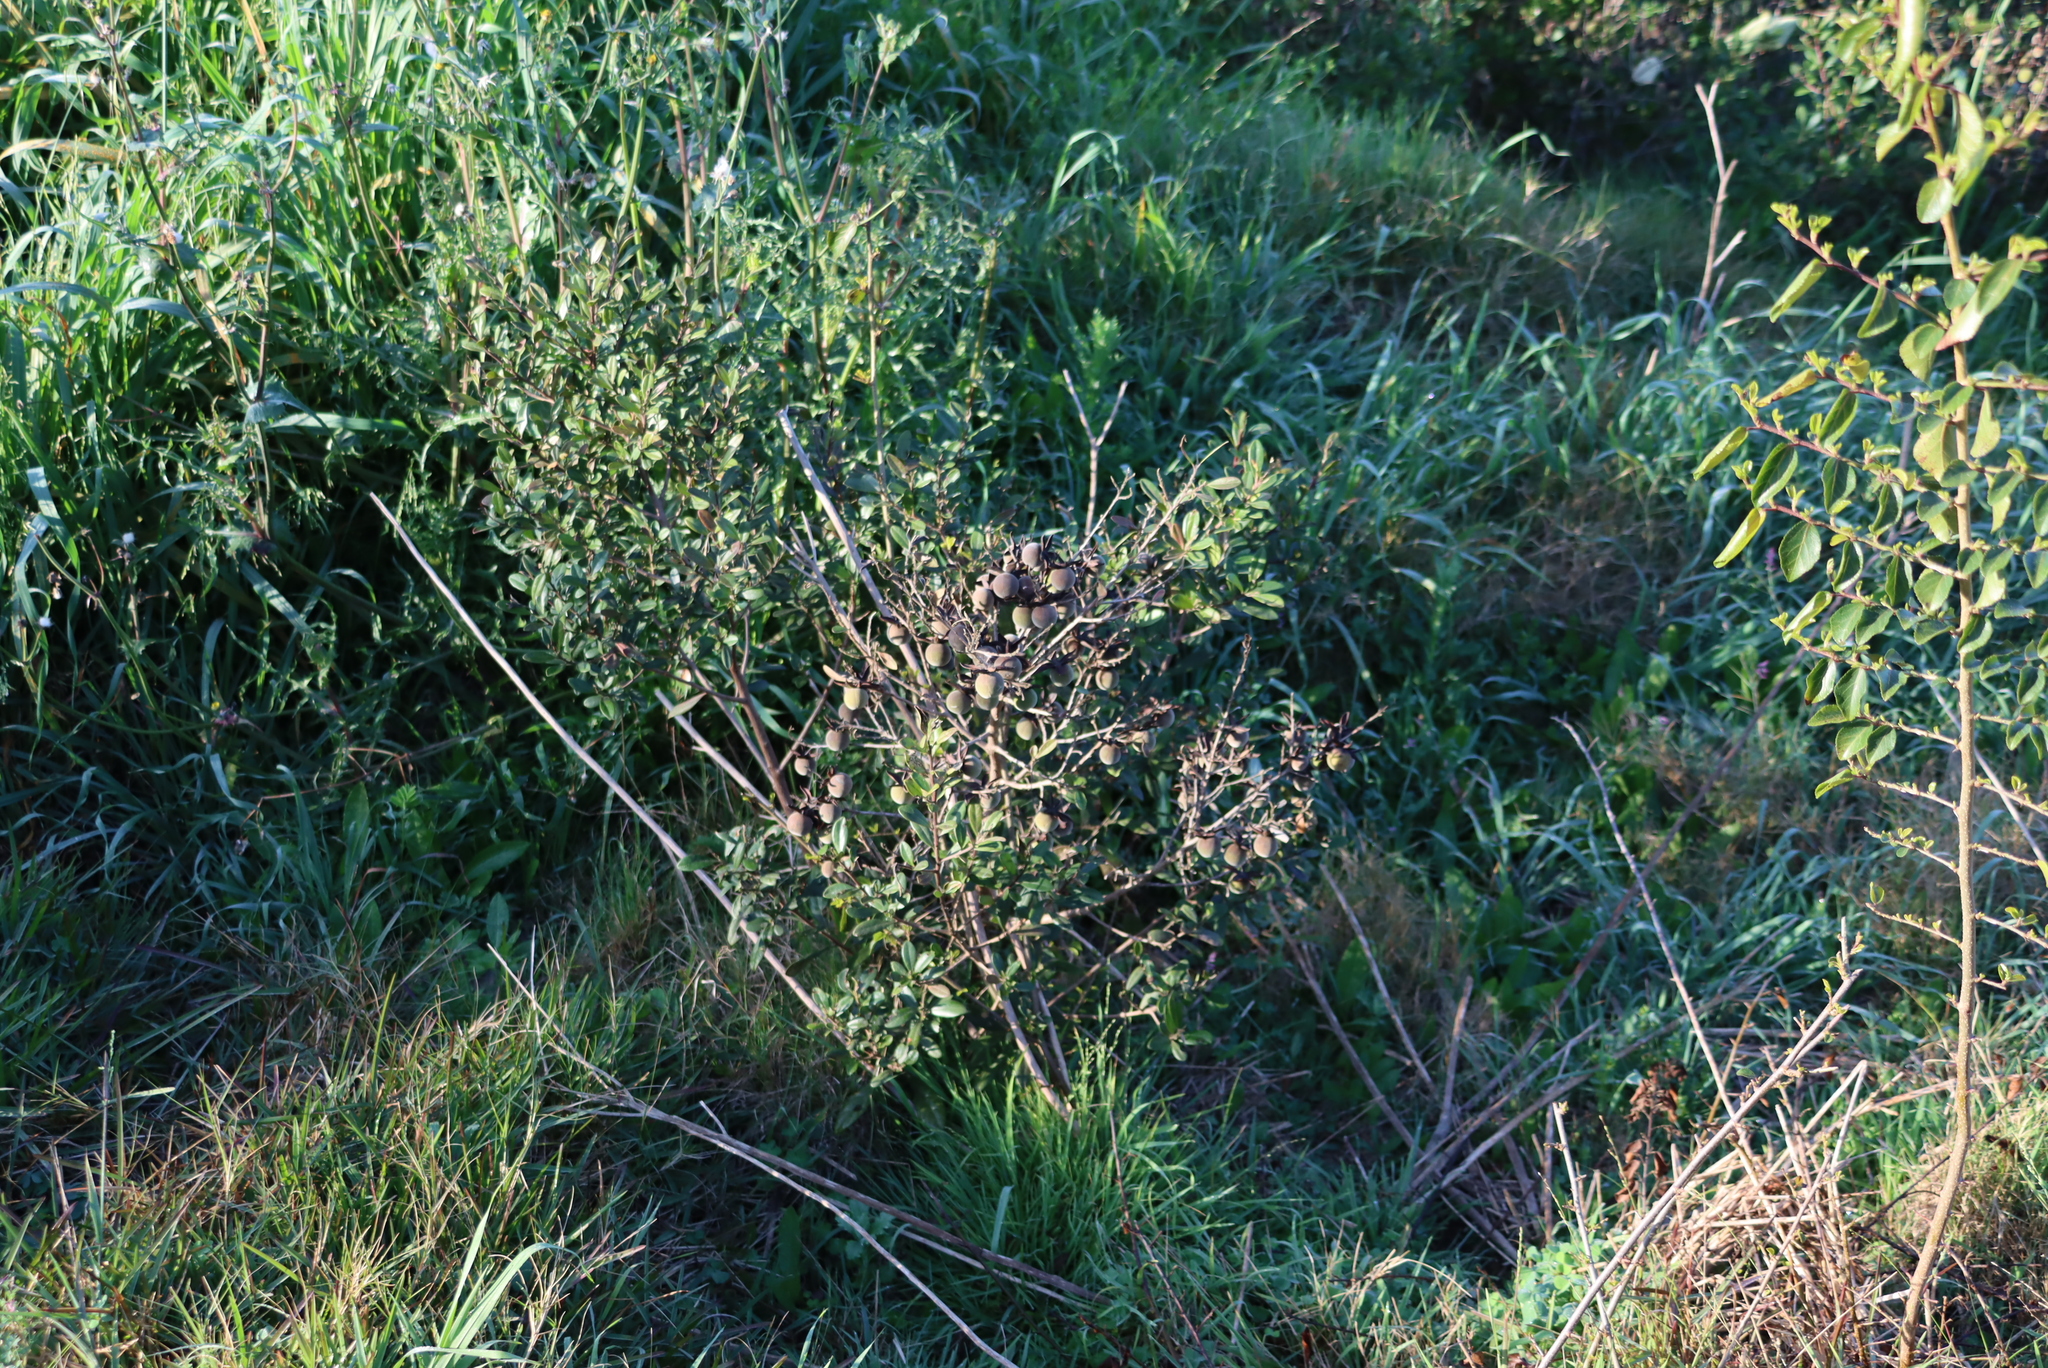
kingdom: Plantae
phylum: Tracheophyta
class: Magnoliopsida
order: Ericales
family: Ebenaceae
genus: Diospyros
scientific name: Diospyros dichrophylla
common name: Common star-apple
